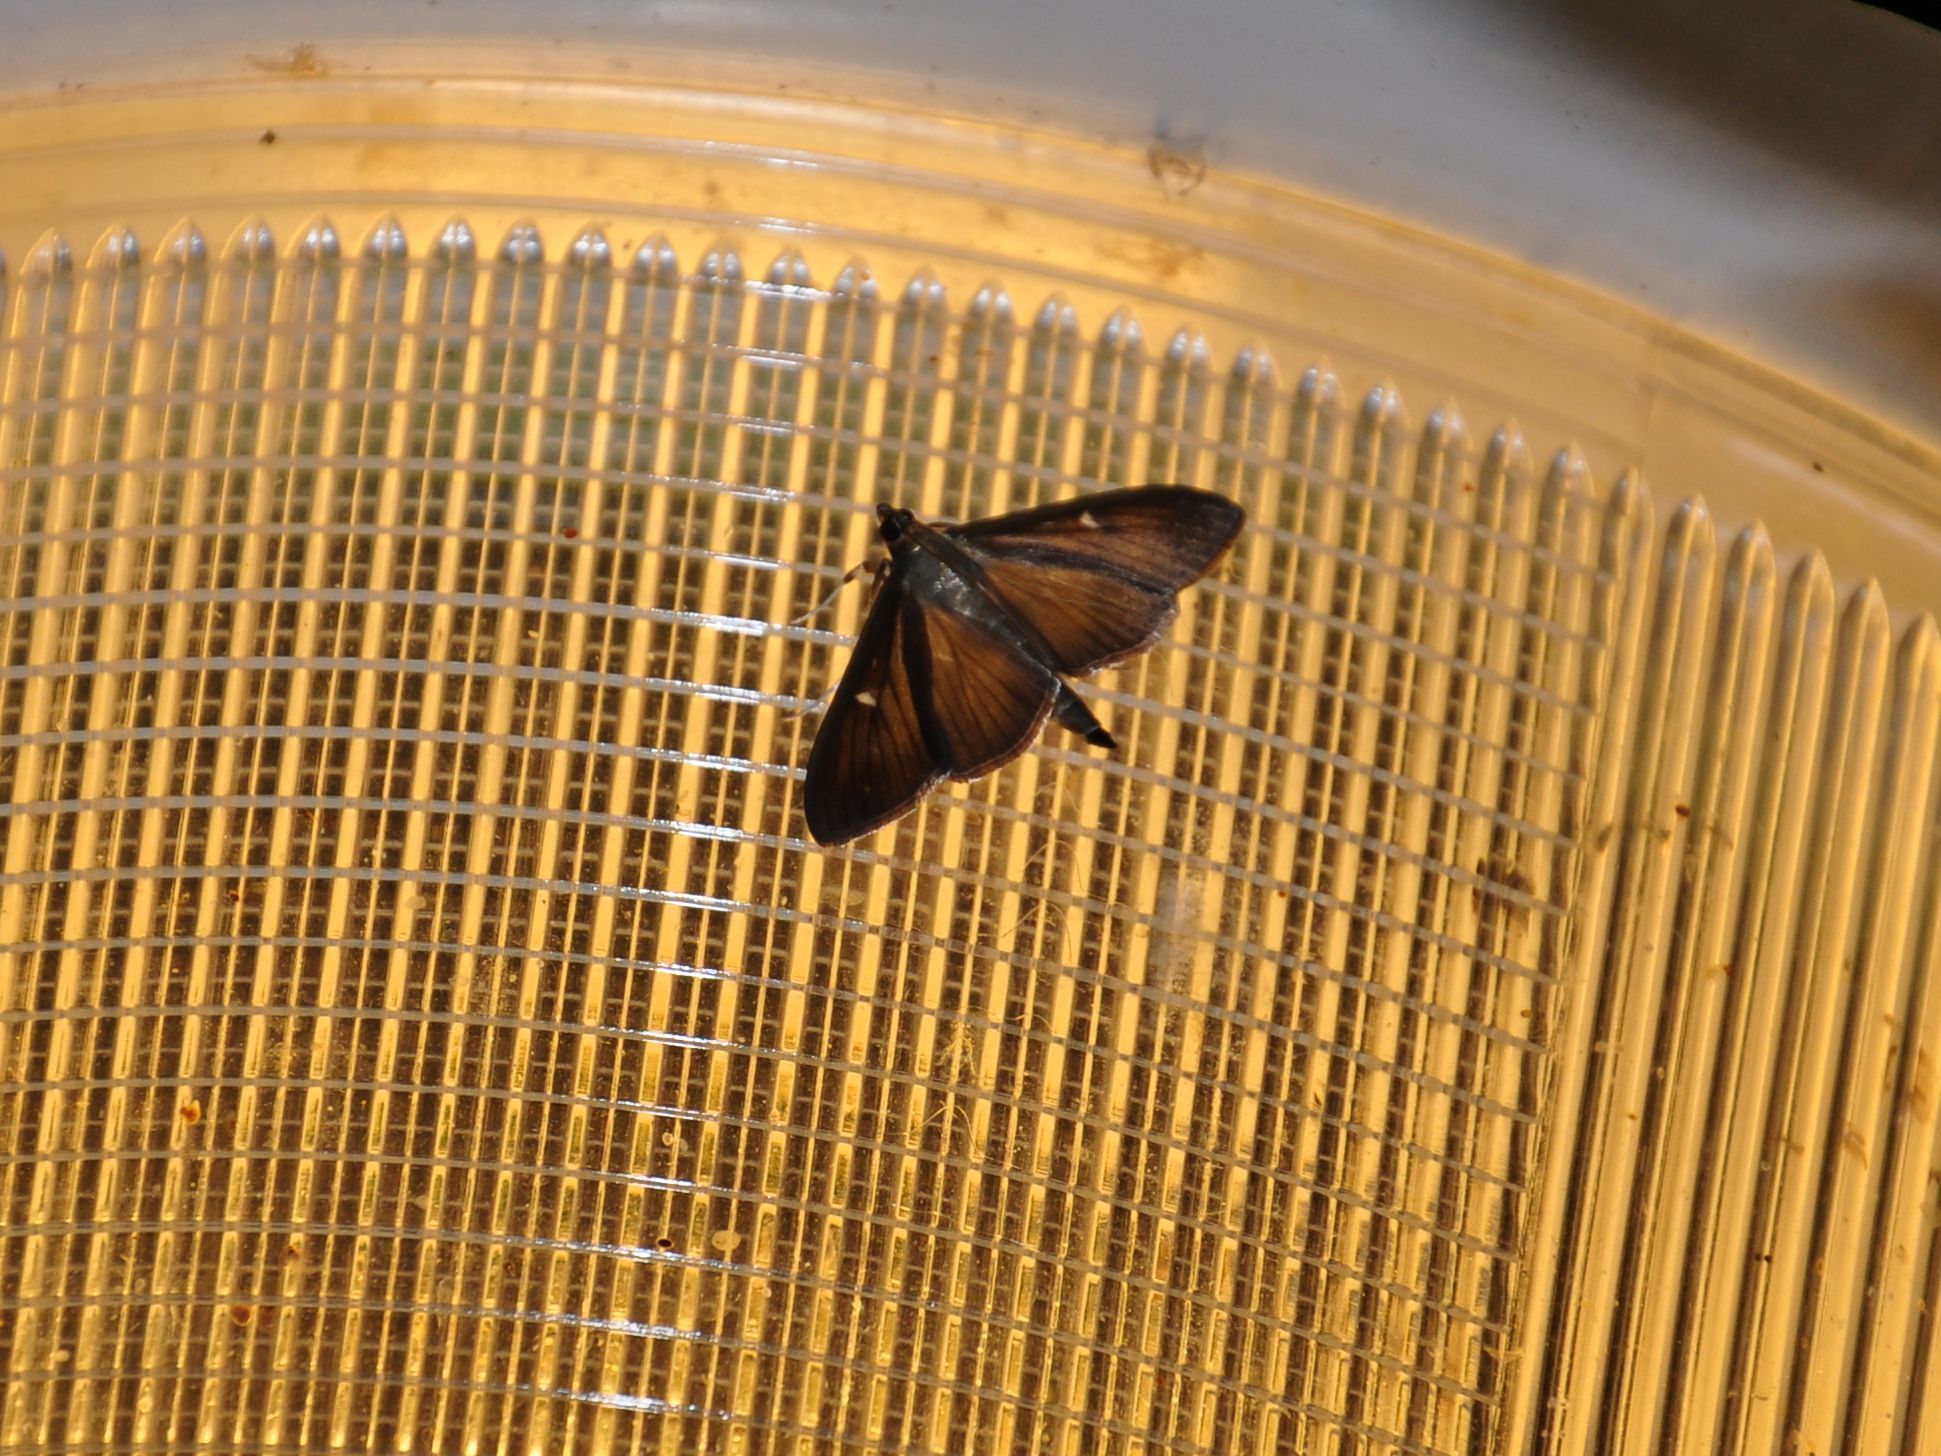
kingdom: Animalia
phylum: Arthropoda
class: Insecta
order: Lepidoptera
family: Crambidae
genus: Cydalima
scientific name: Cydalima perspectalis
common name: Box tree moth
